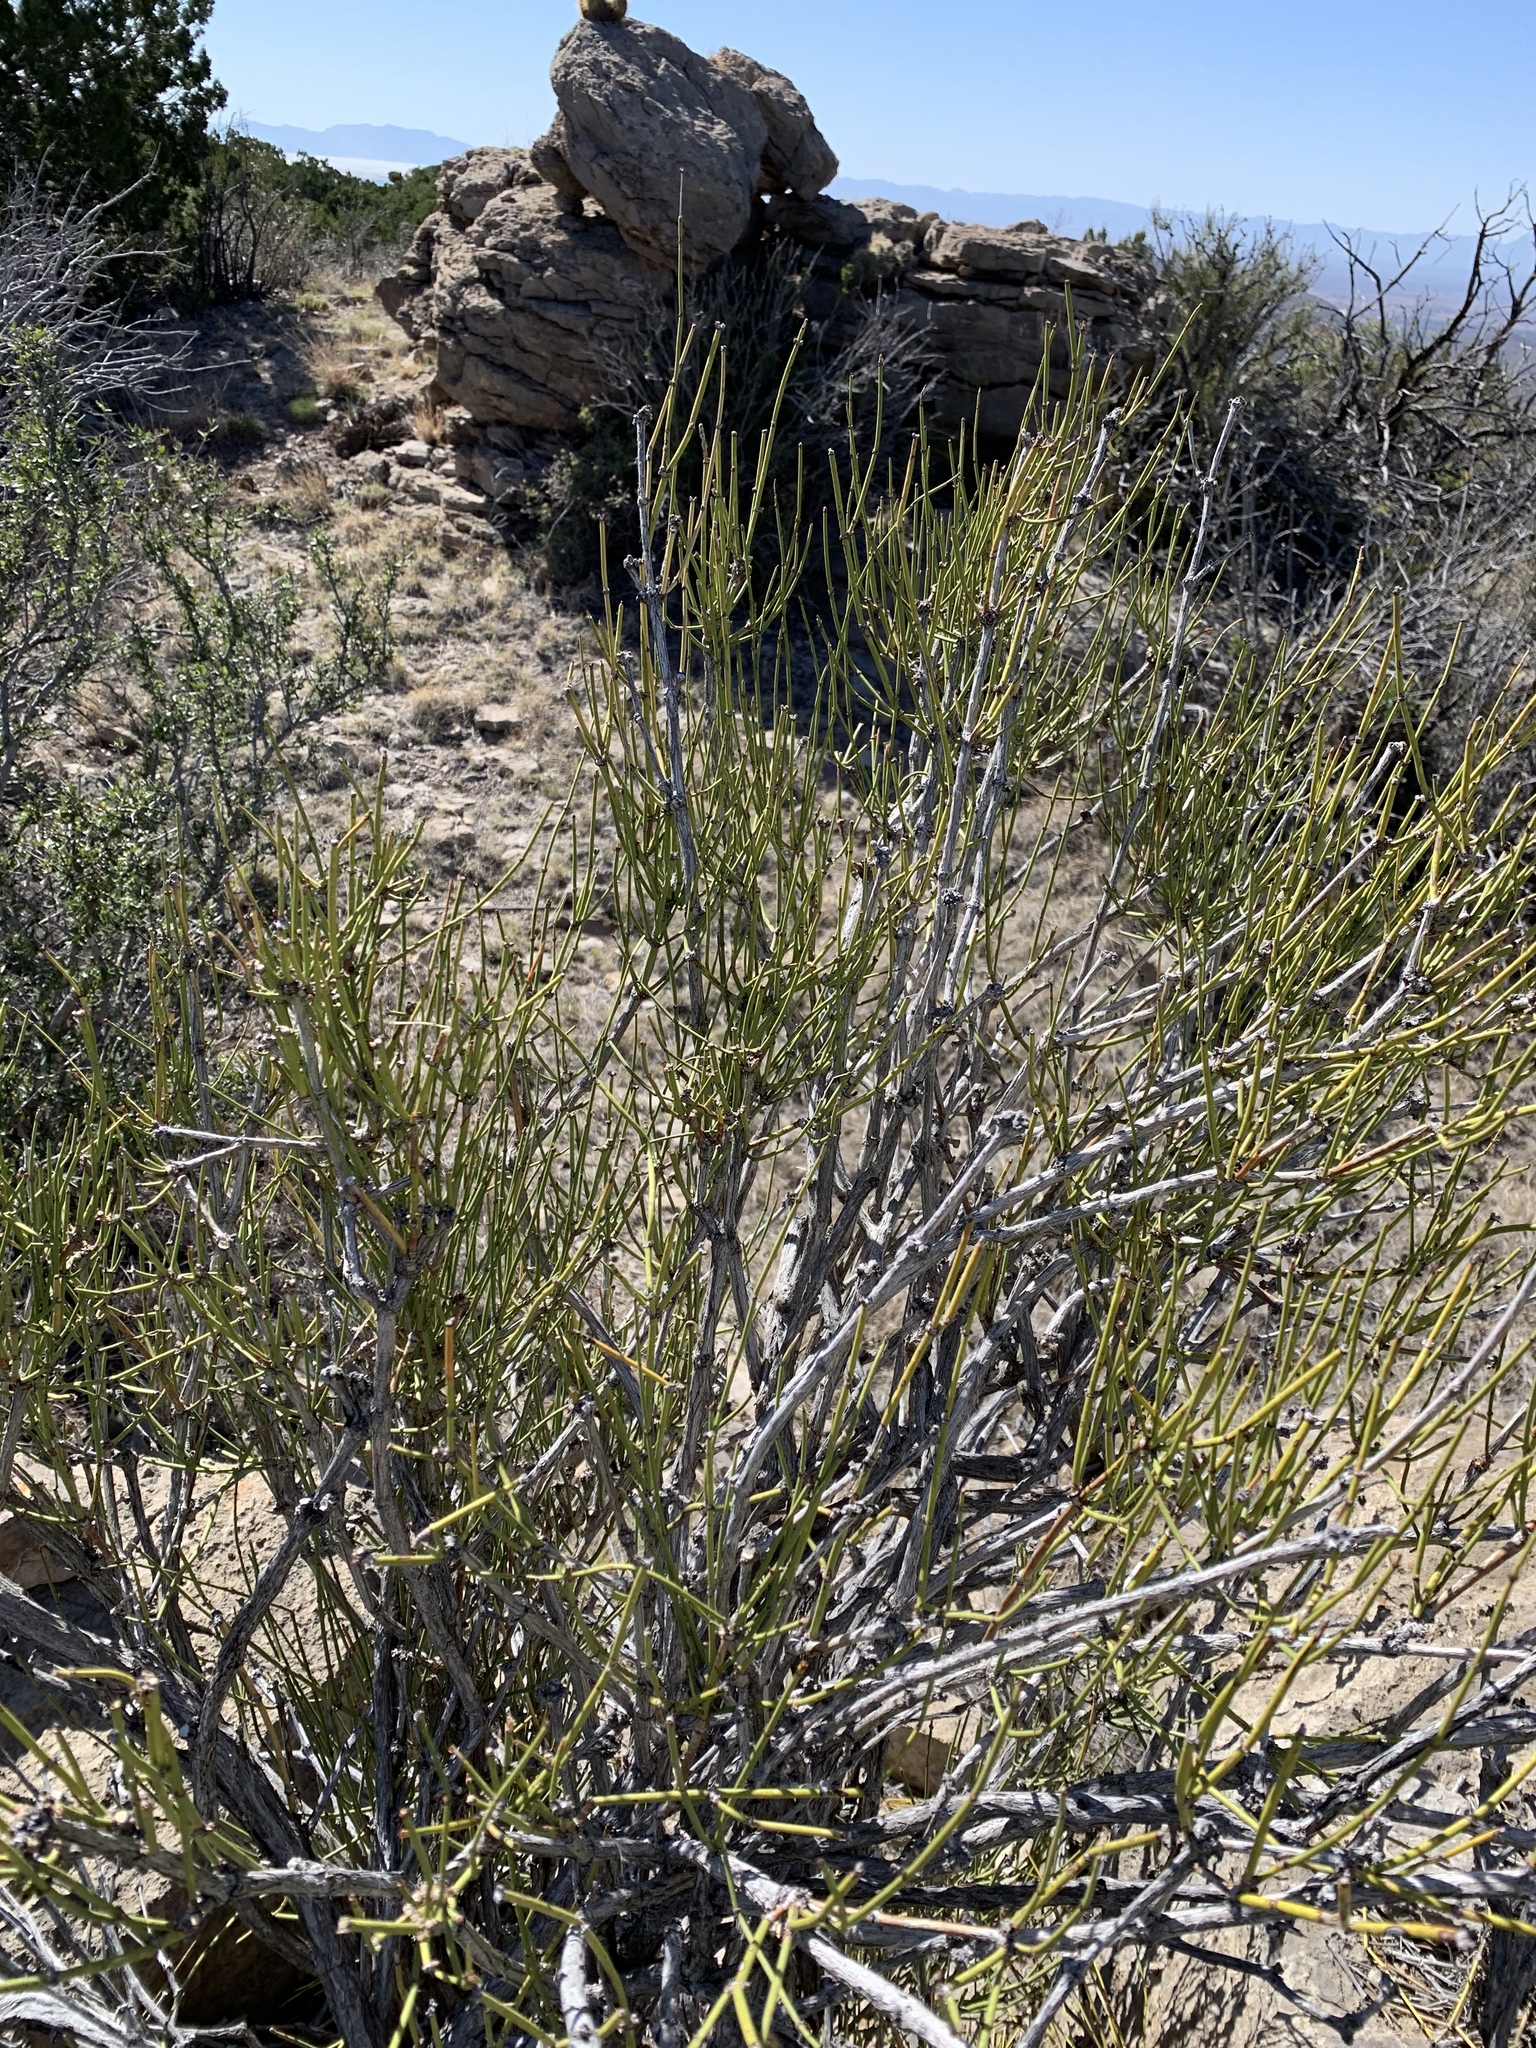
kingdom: Plantae
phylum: Tracheophyta
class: Gnetopsida
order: Ephedrales
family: Ephedraceae
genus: Ephedra
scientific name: Ephedra trifurca
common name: Mexican-tea
